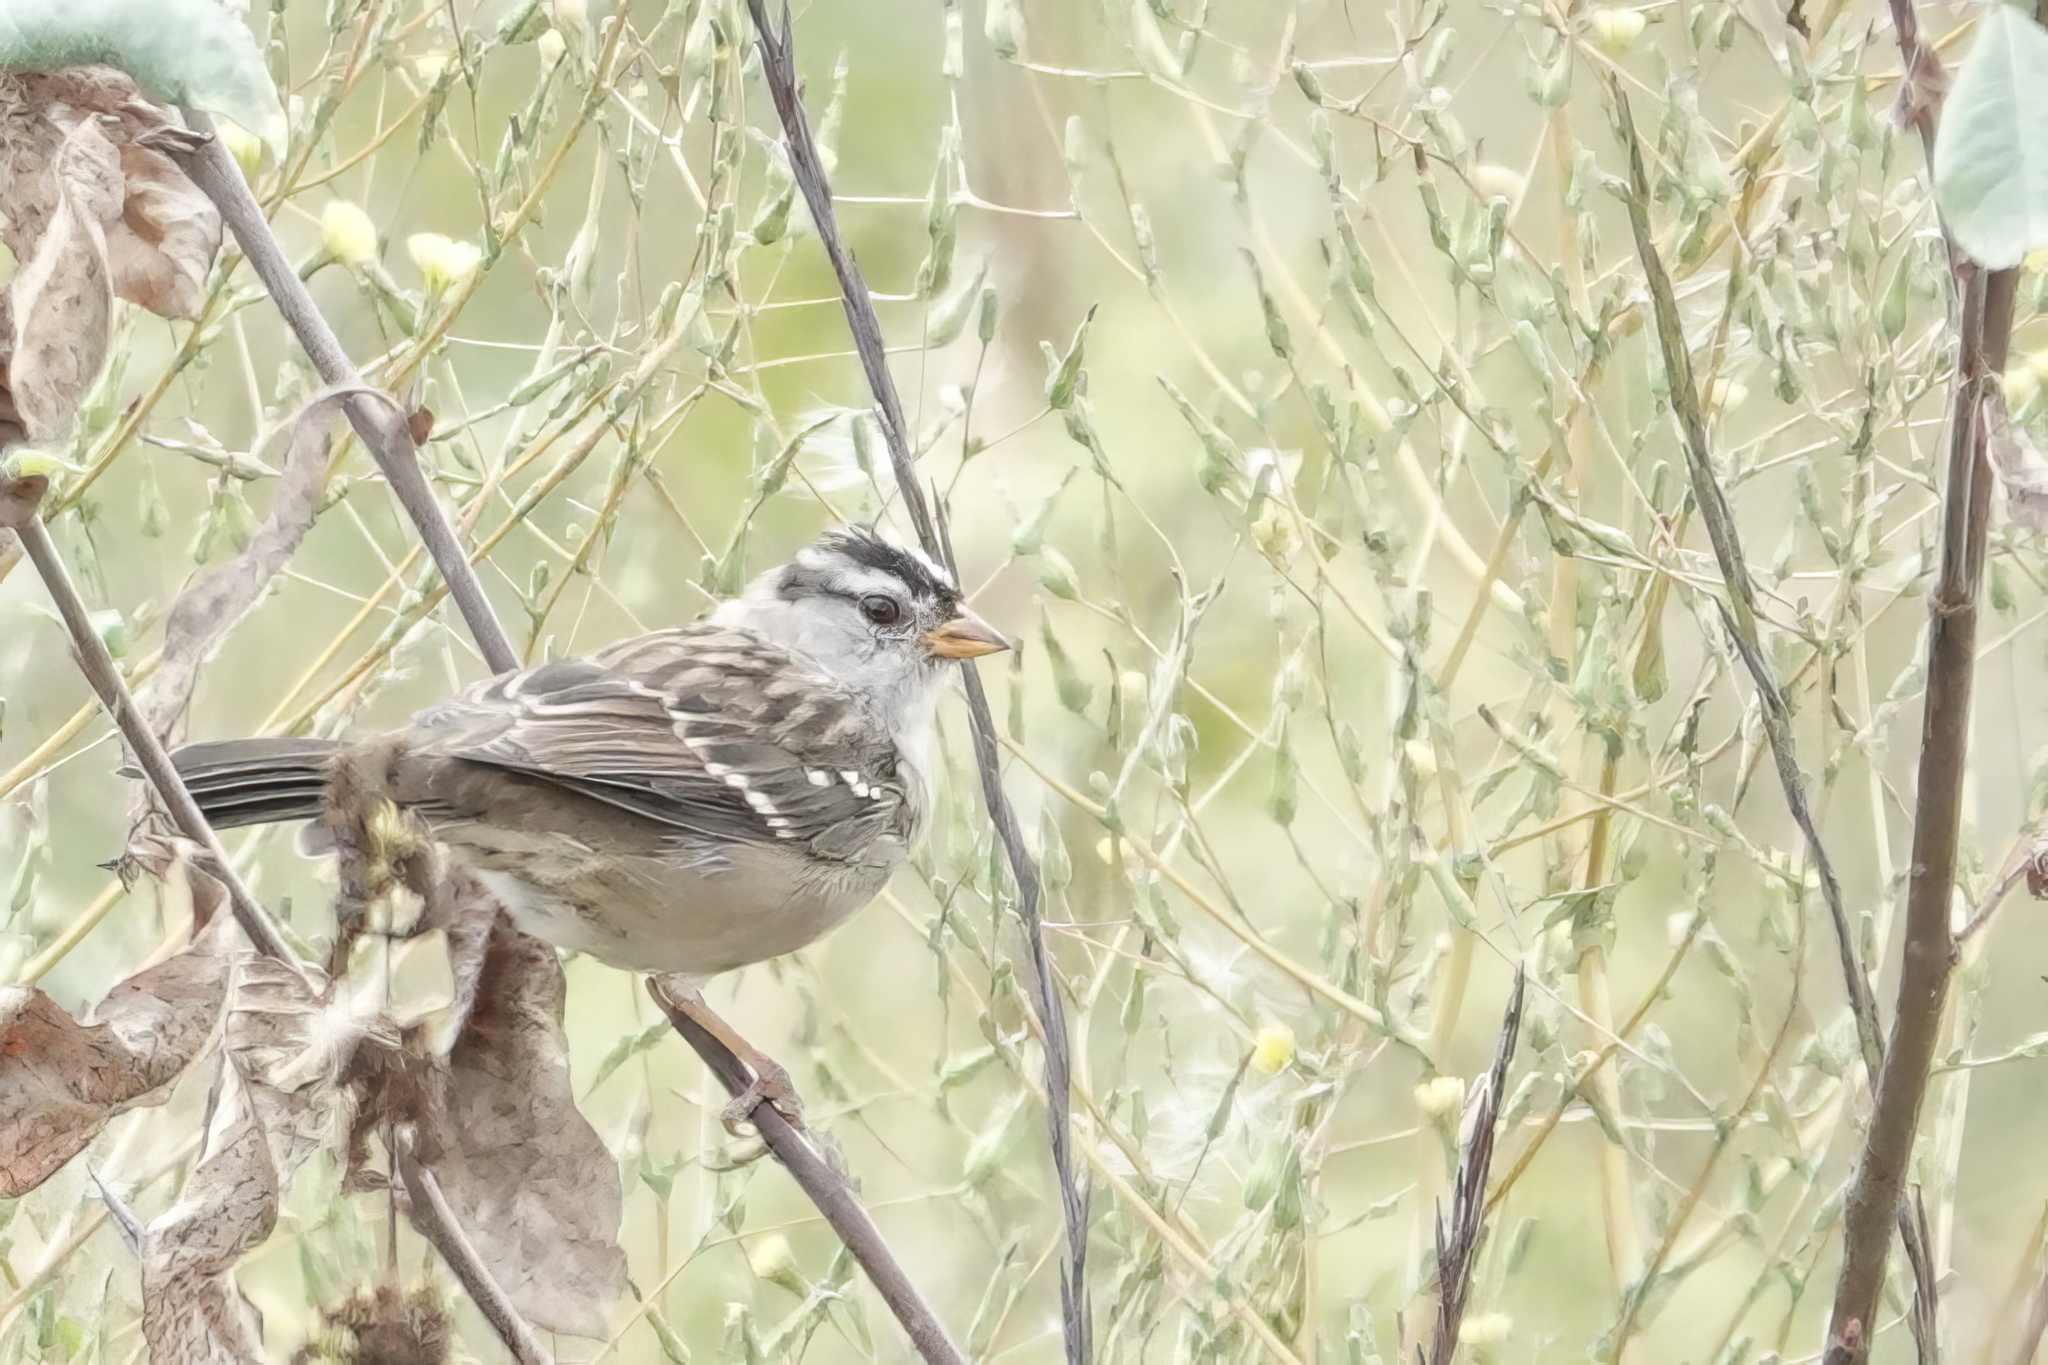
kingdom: Animalia
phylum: Chordata
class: Aves
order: Passeriformes
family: Passerellidae
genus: Zonotrichia
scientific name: Zonotrichia leucophrys
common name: White-crowned sparrow
